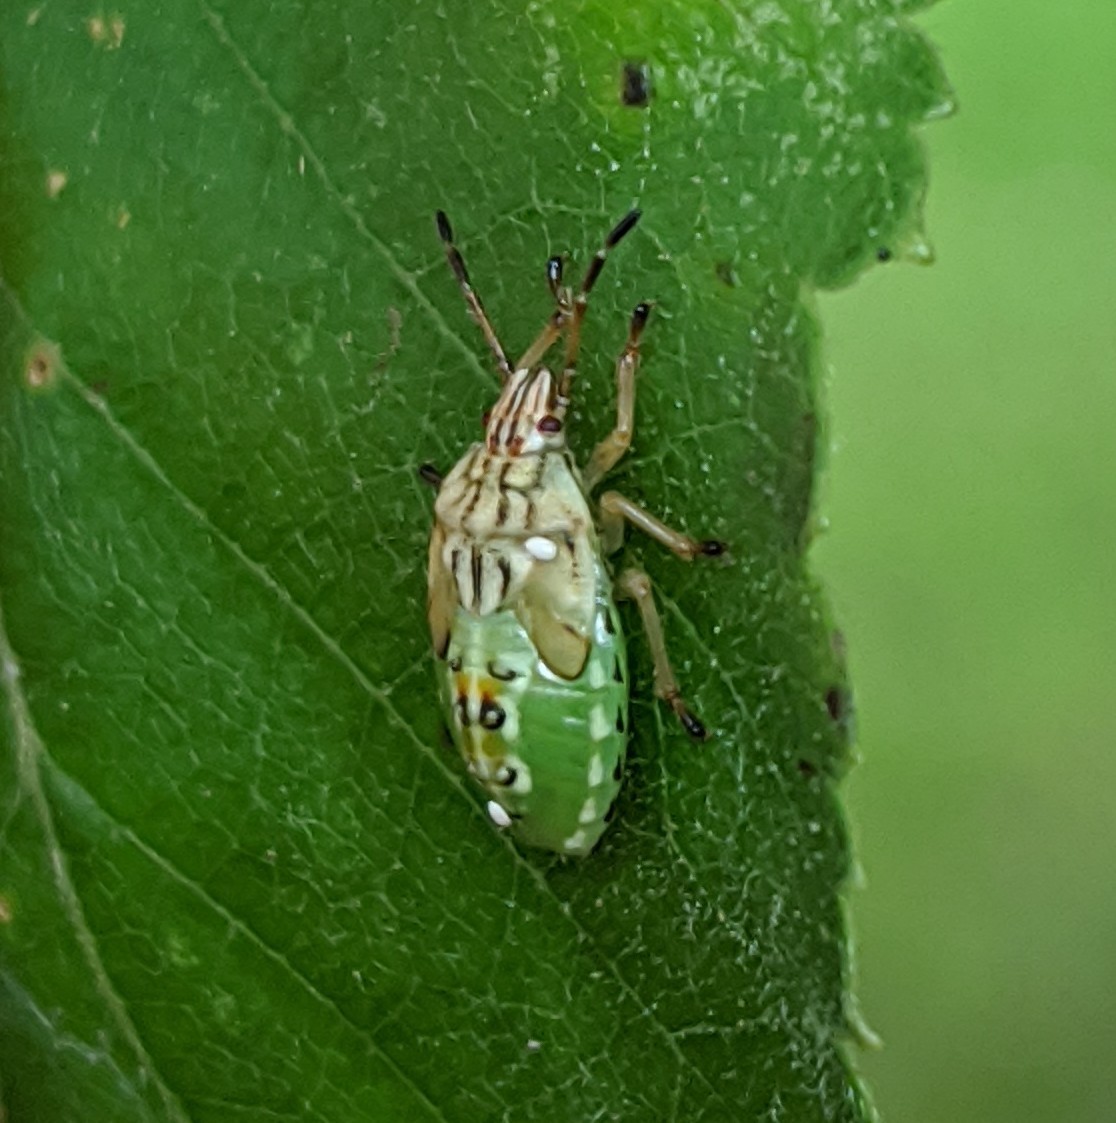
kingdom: Animalia
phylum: Arthropoda
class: Insecta
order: Hemiptera
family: Acanthosomatidae
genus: Elasmucha
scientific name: Elasmucha grisea
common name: Parent bug
